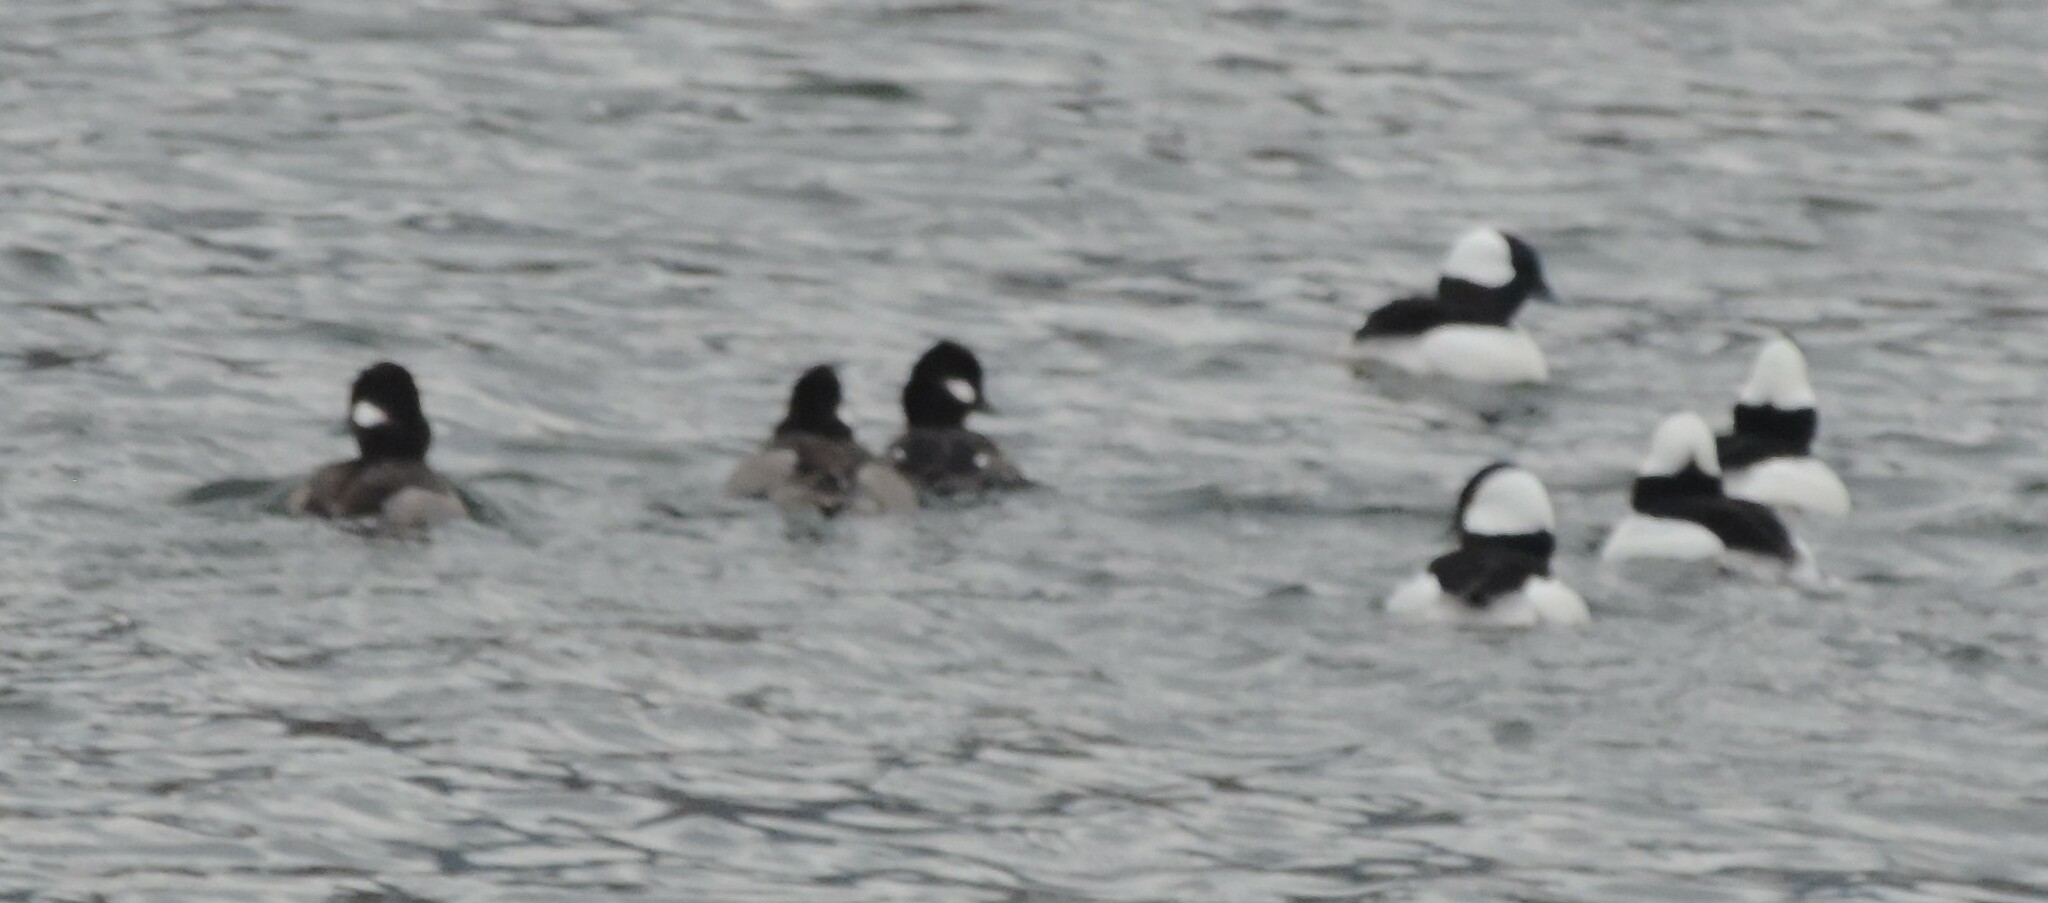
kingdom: Animalia
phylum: Chordata
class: Aves
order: Anseriformes
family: Anatidae
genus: Bucephala
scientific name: Bucephala albeola
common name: Bufflehead
